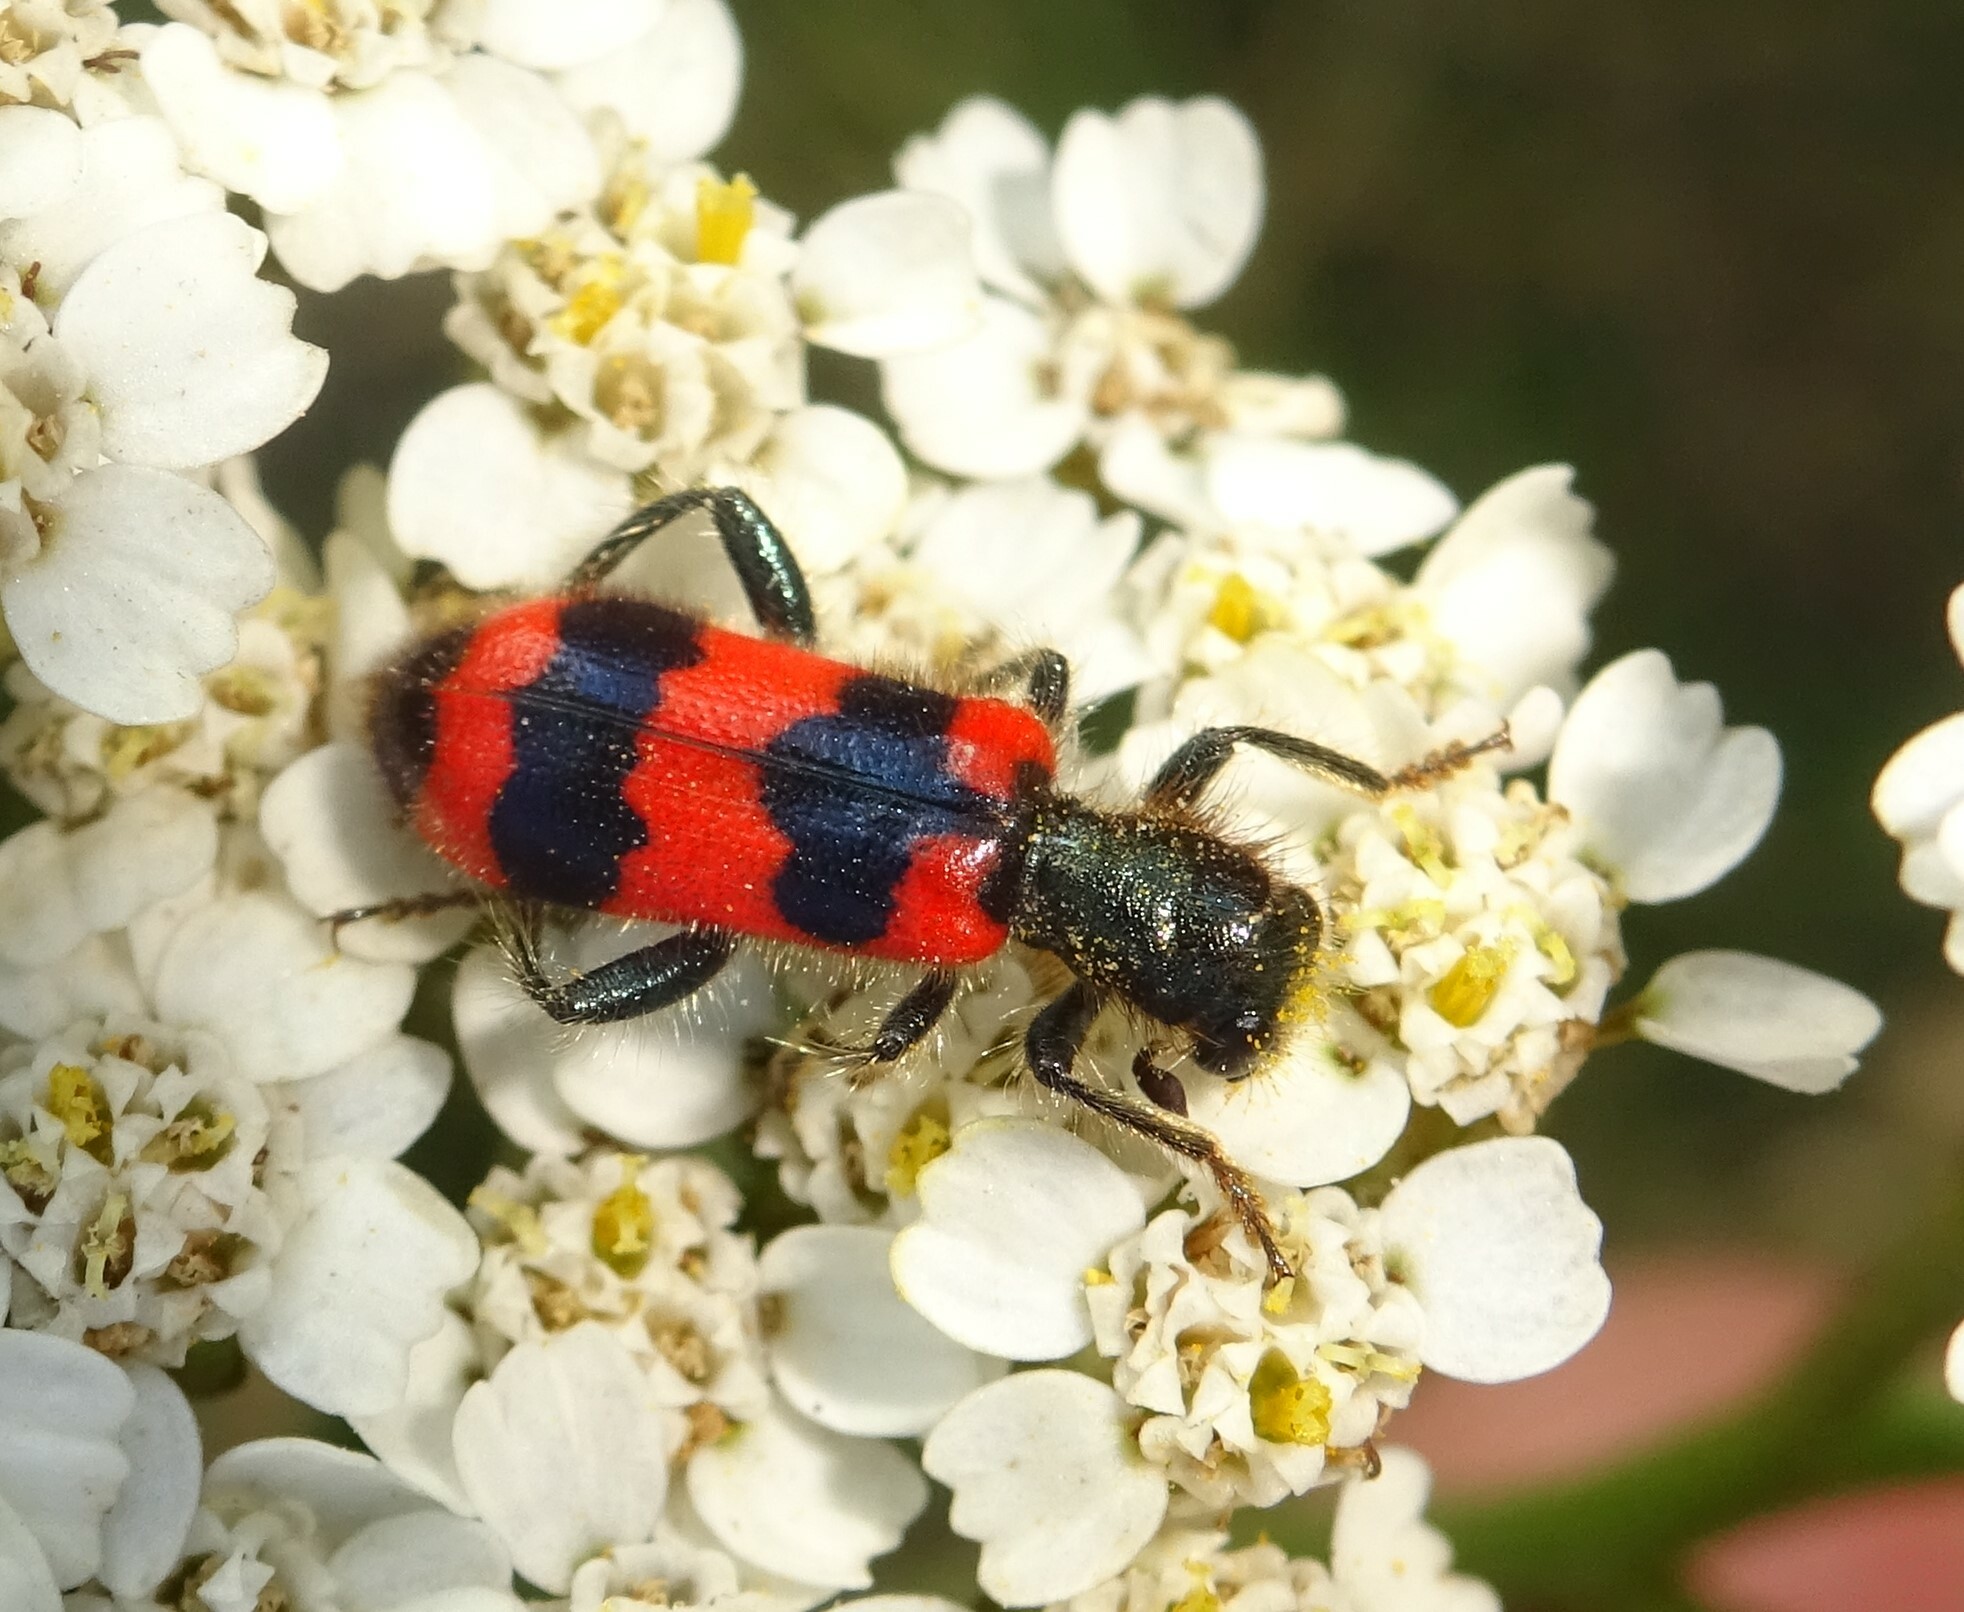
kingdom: Animalia
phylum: Arthropoda
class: Insecta
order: Coleoptera
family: Cleridae
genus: Trichodes
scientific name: Trichodes apiarius
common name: Bee-eating beetle
